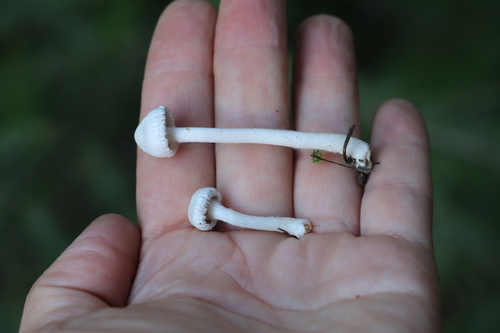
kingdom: Fungi
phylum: Basidiomycota
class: Agaricomycetes
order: Agaricales
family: Inocybaceae
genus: Inocybe
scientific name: Inocybe geophylla
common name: White fibrecap
